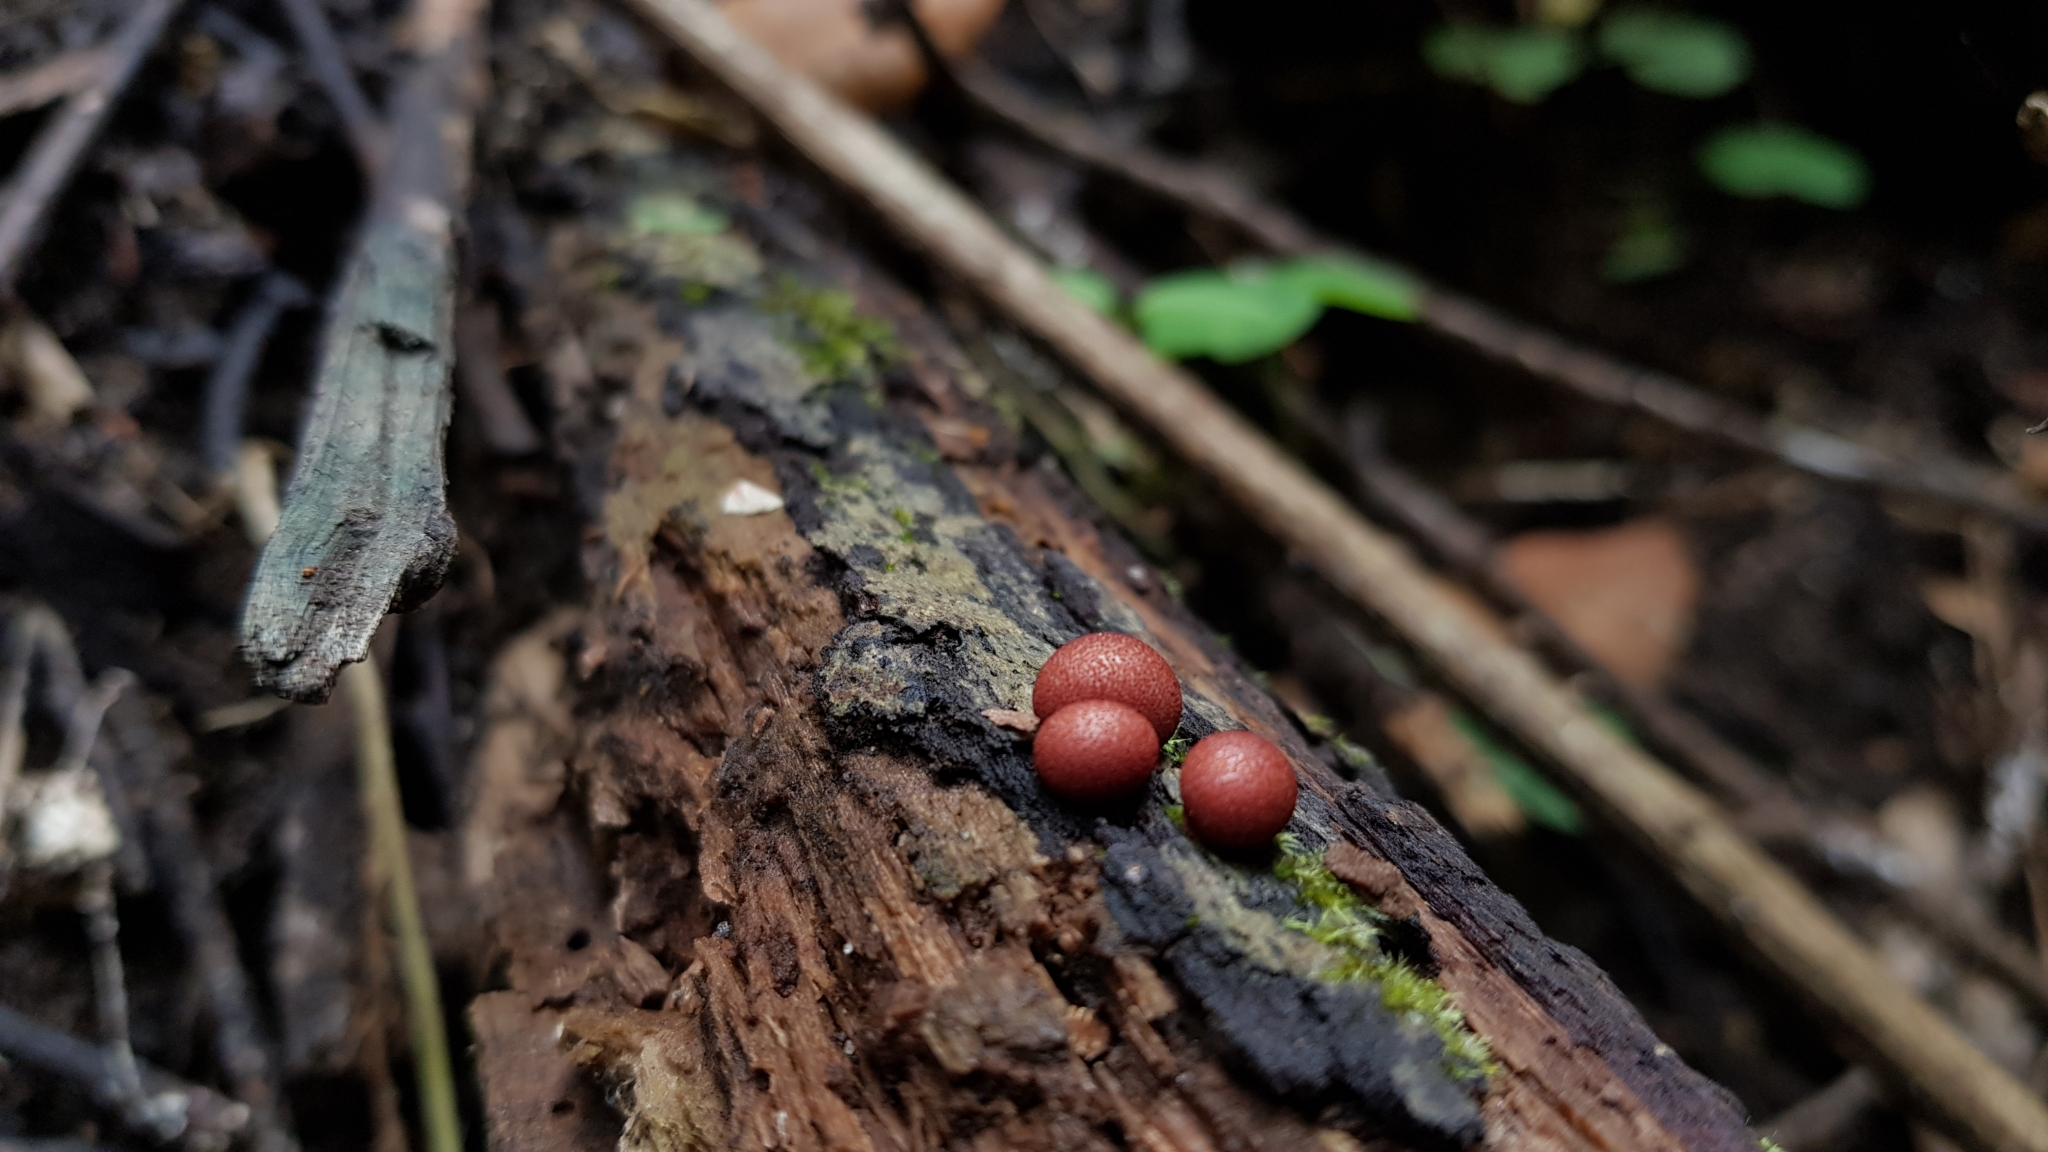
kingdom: Protozoa
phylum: Mycetozoa
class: Myxomycetes
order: Cribrariales
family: Tubiferaceae
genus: Lycogala
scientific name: Lycogala epidendrum
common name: Wolf's milk
